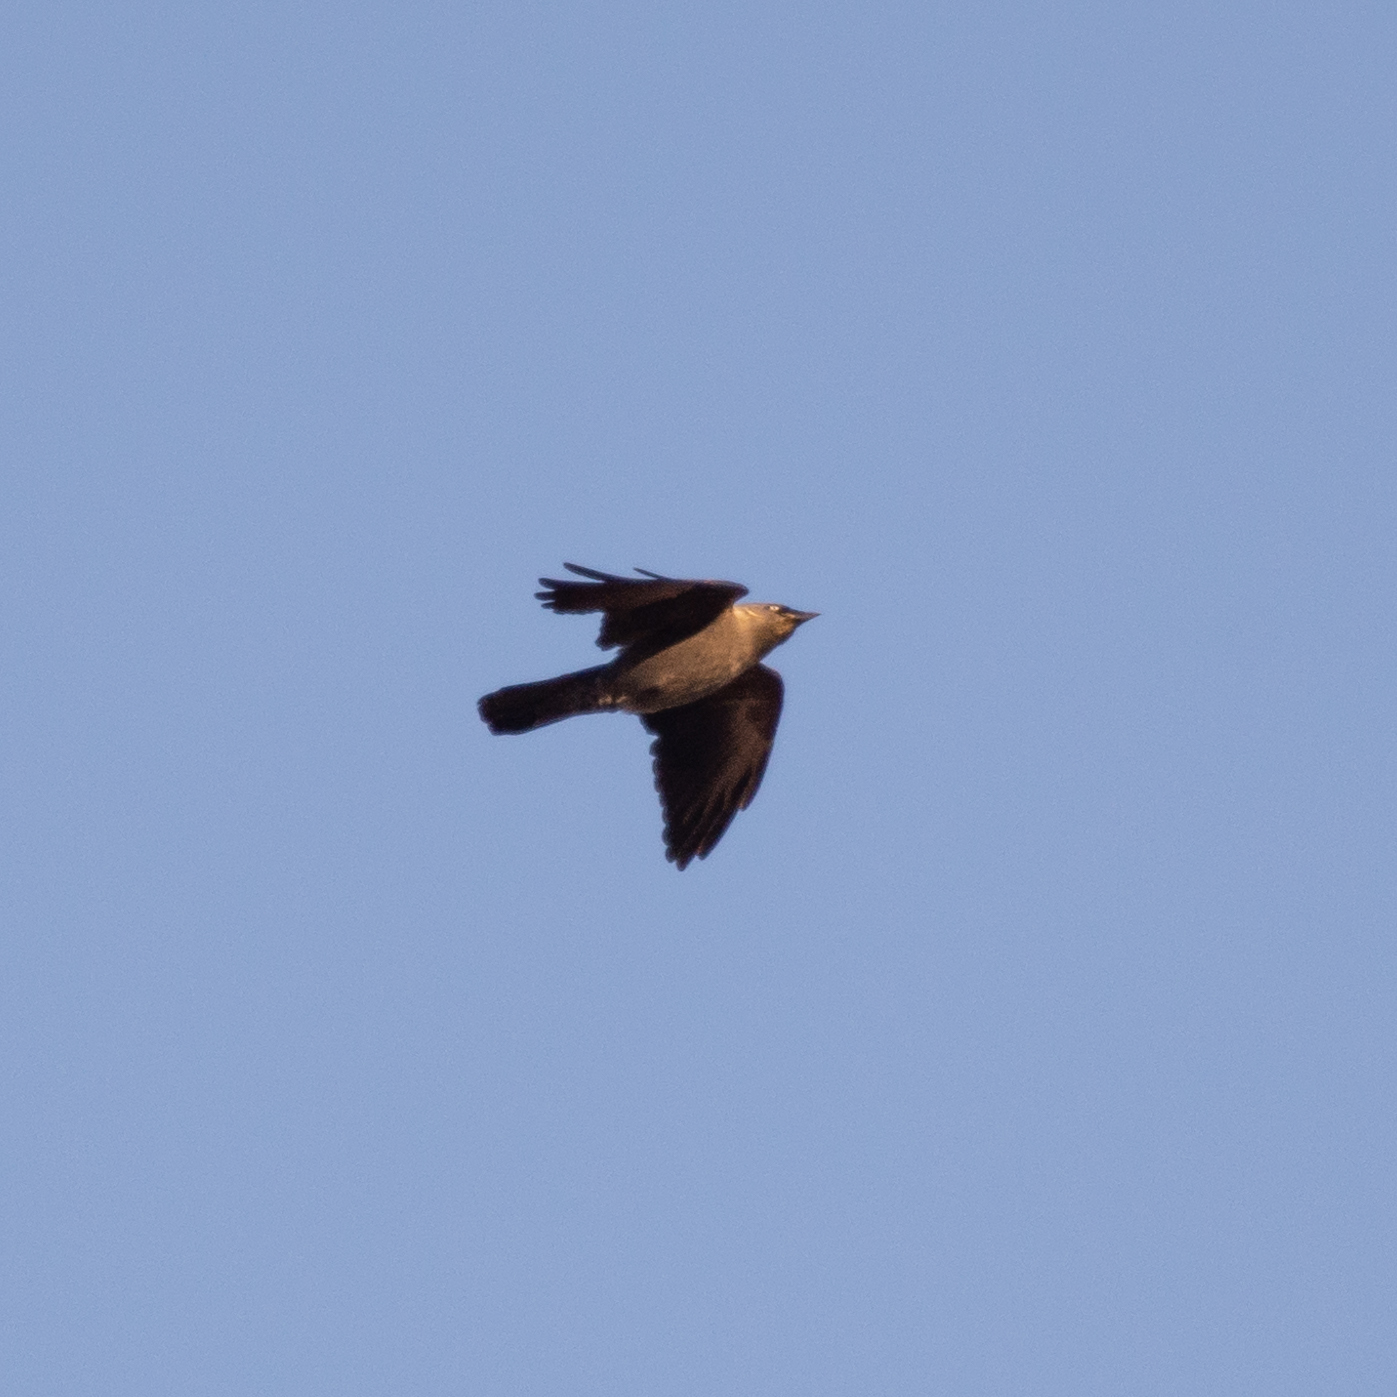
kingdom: Animalia
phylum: Chordata
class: Aves
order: Passeriformes
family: Corvidae
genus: Coloeus
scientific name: Coloeus monedula
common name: Western jackdaw
